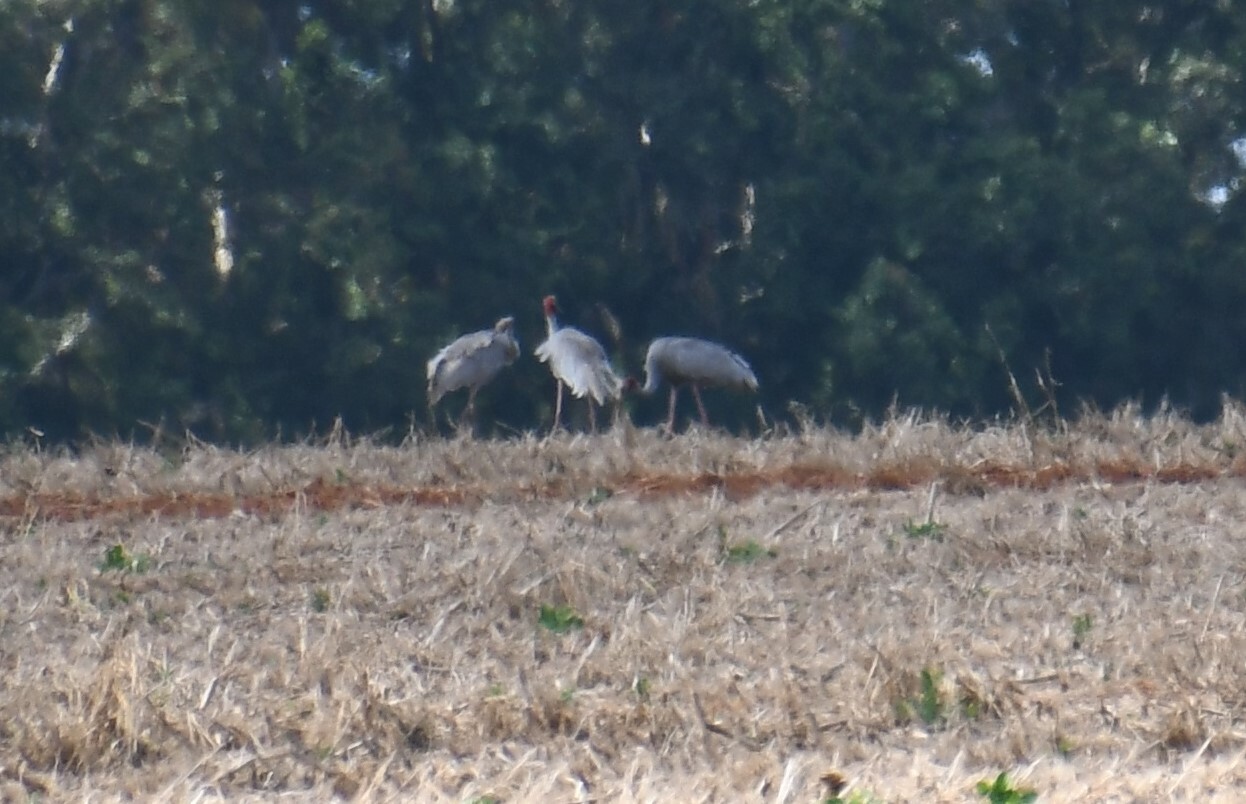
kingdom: Animalia
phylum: Chordata
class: Aves
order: Gruiformes
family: Gruidae
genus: Grus
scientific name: Grus antigone
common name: Sarus crane
